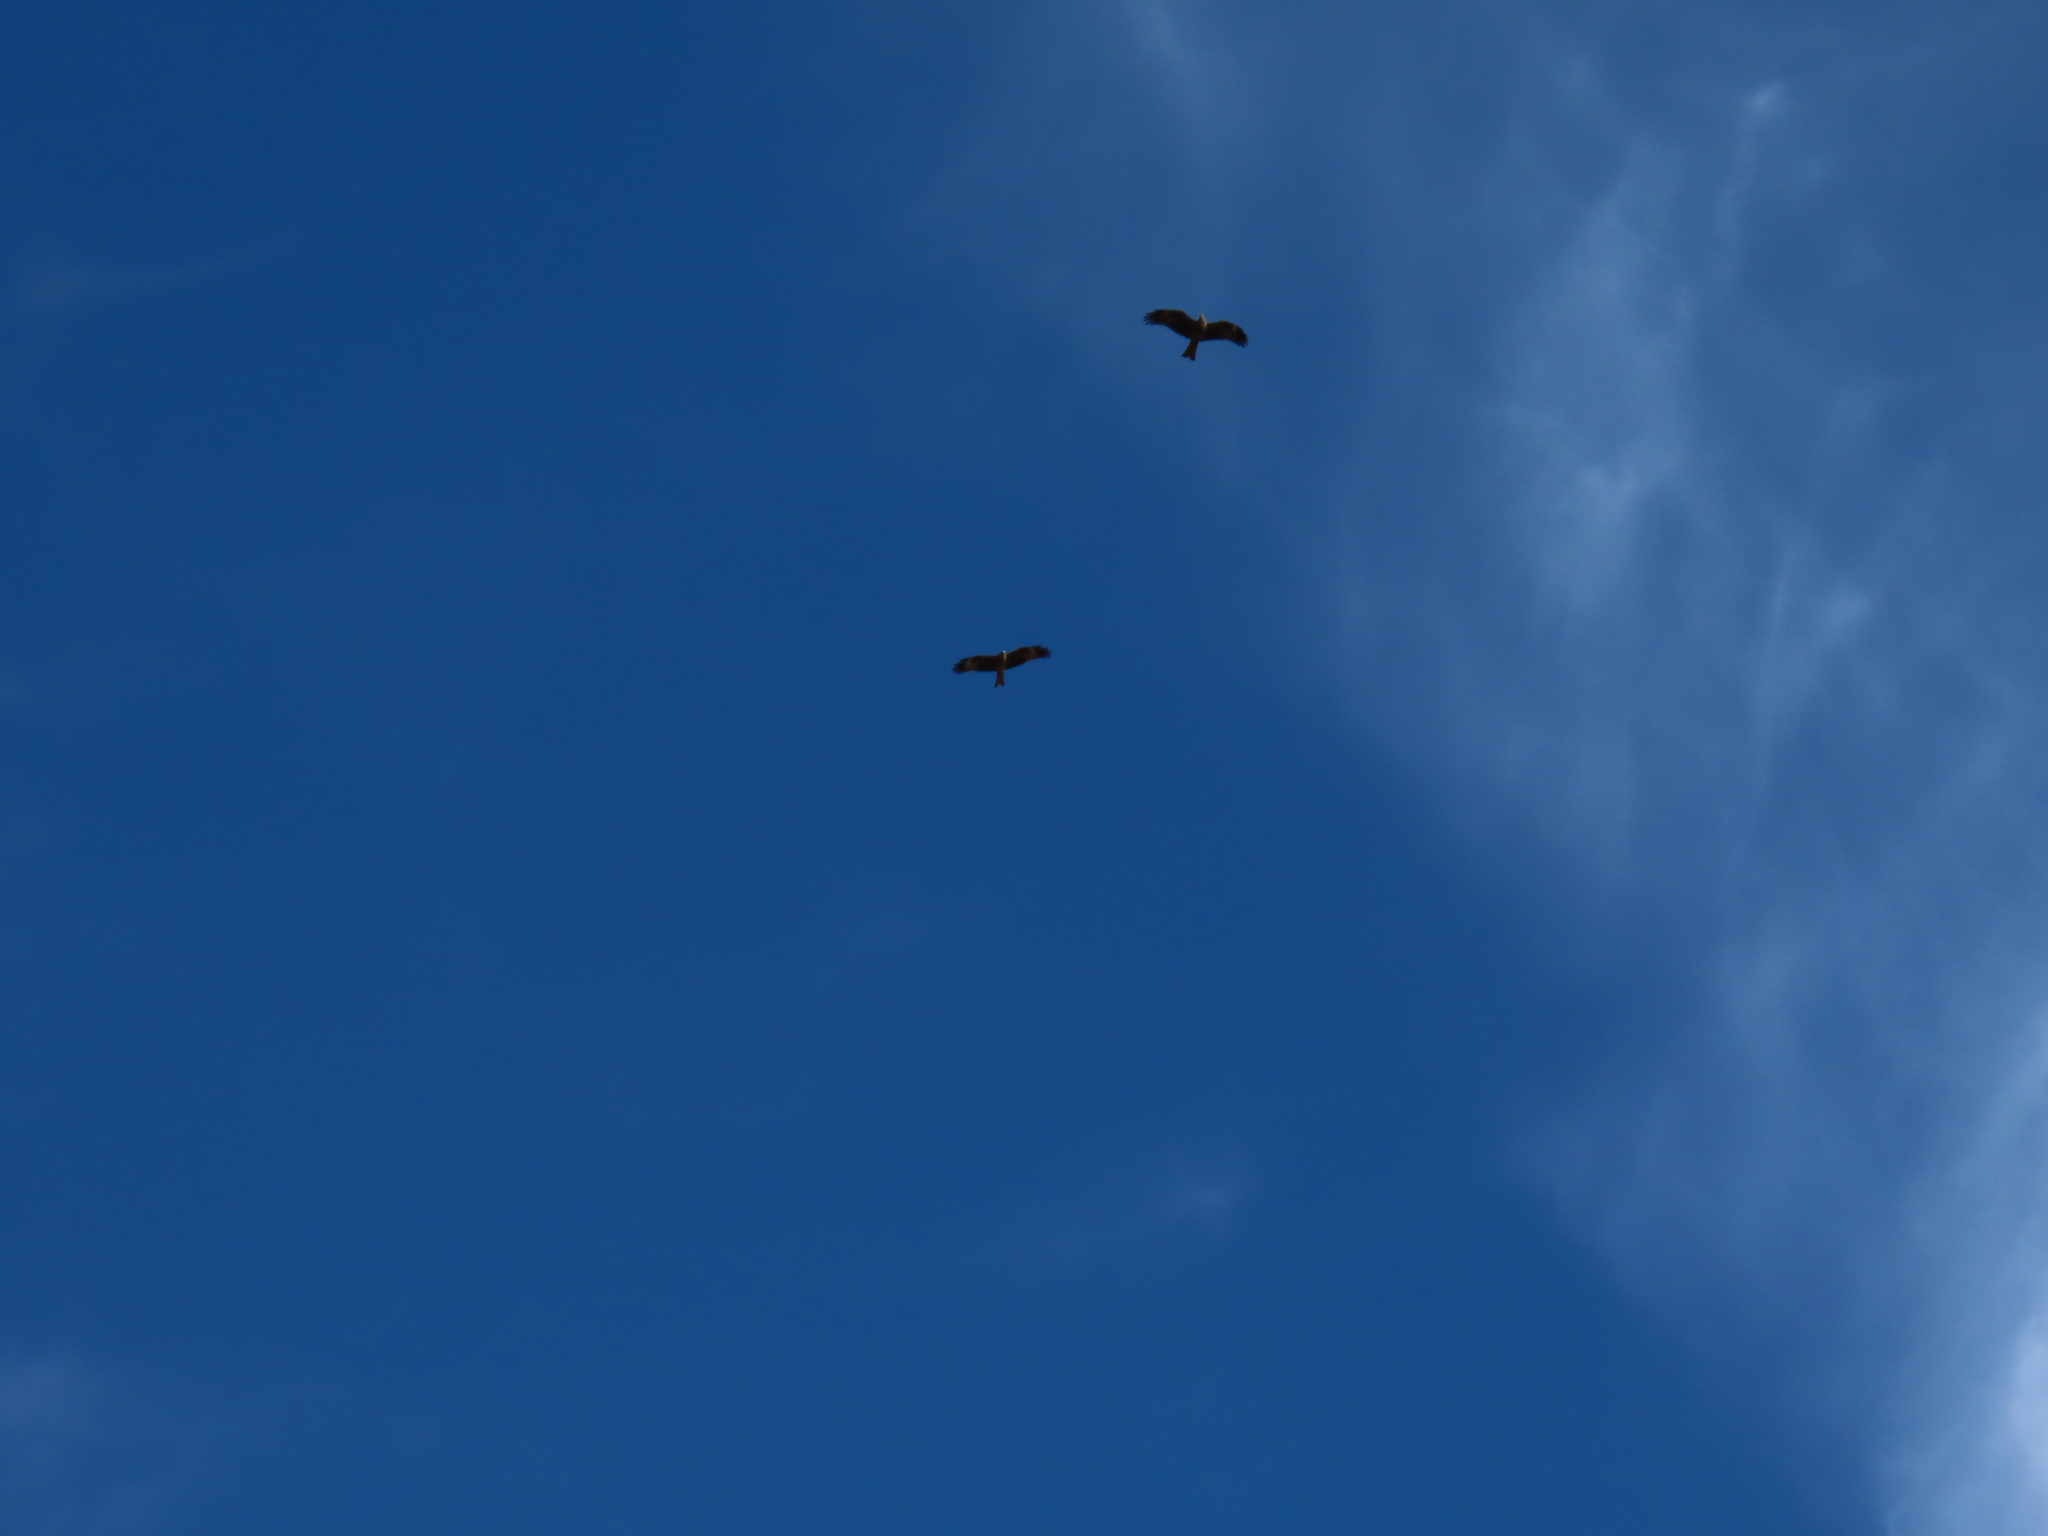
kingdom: Animalia
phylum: Chordata
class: Aves
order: Accipitriformes
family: Accipitridae
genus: Milvus
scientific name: Milvus migrans
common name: Black kite
